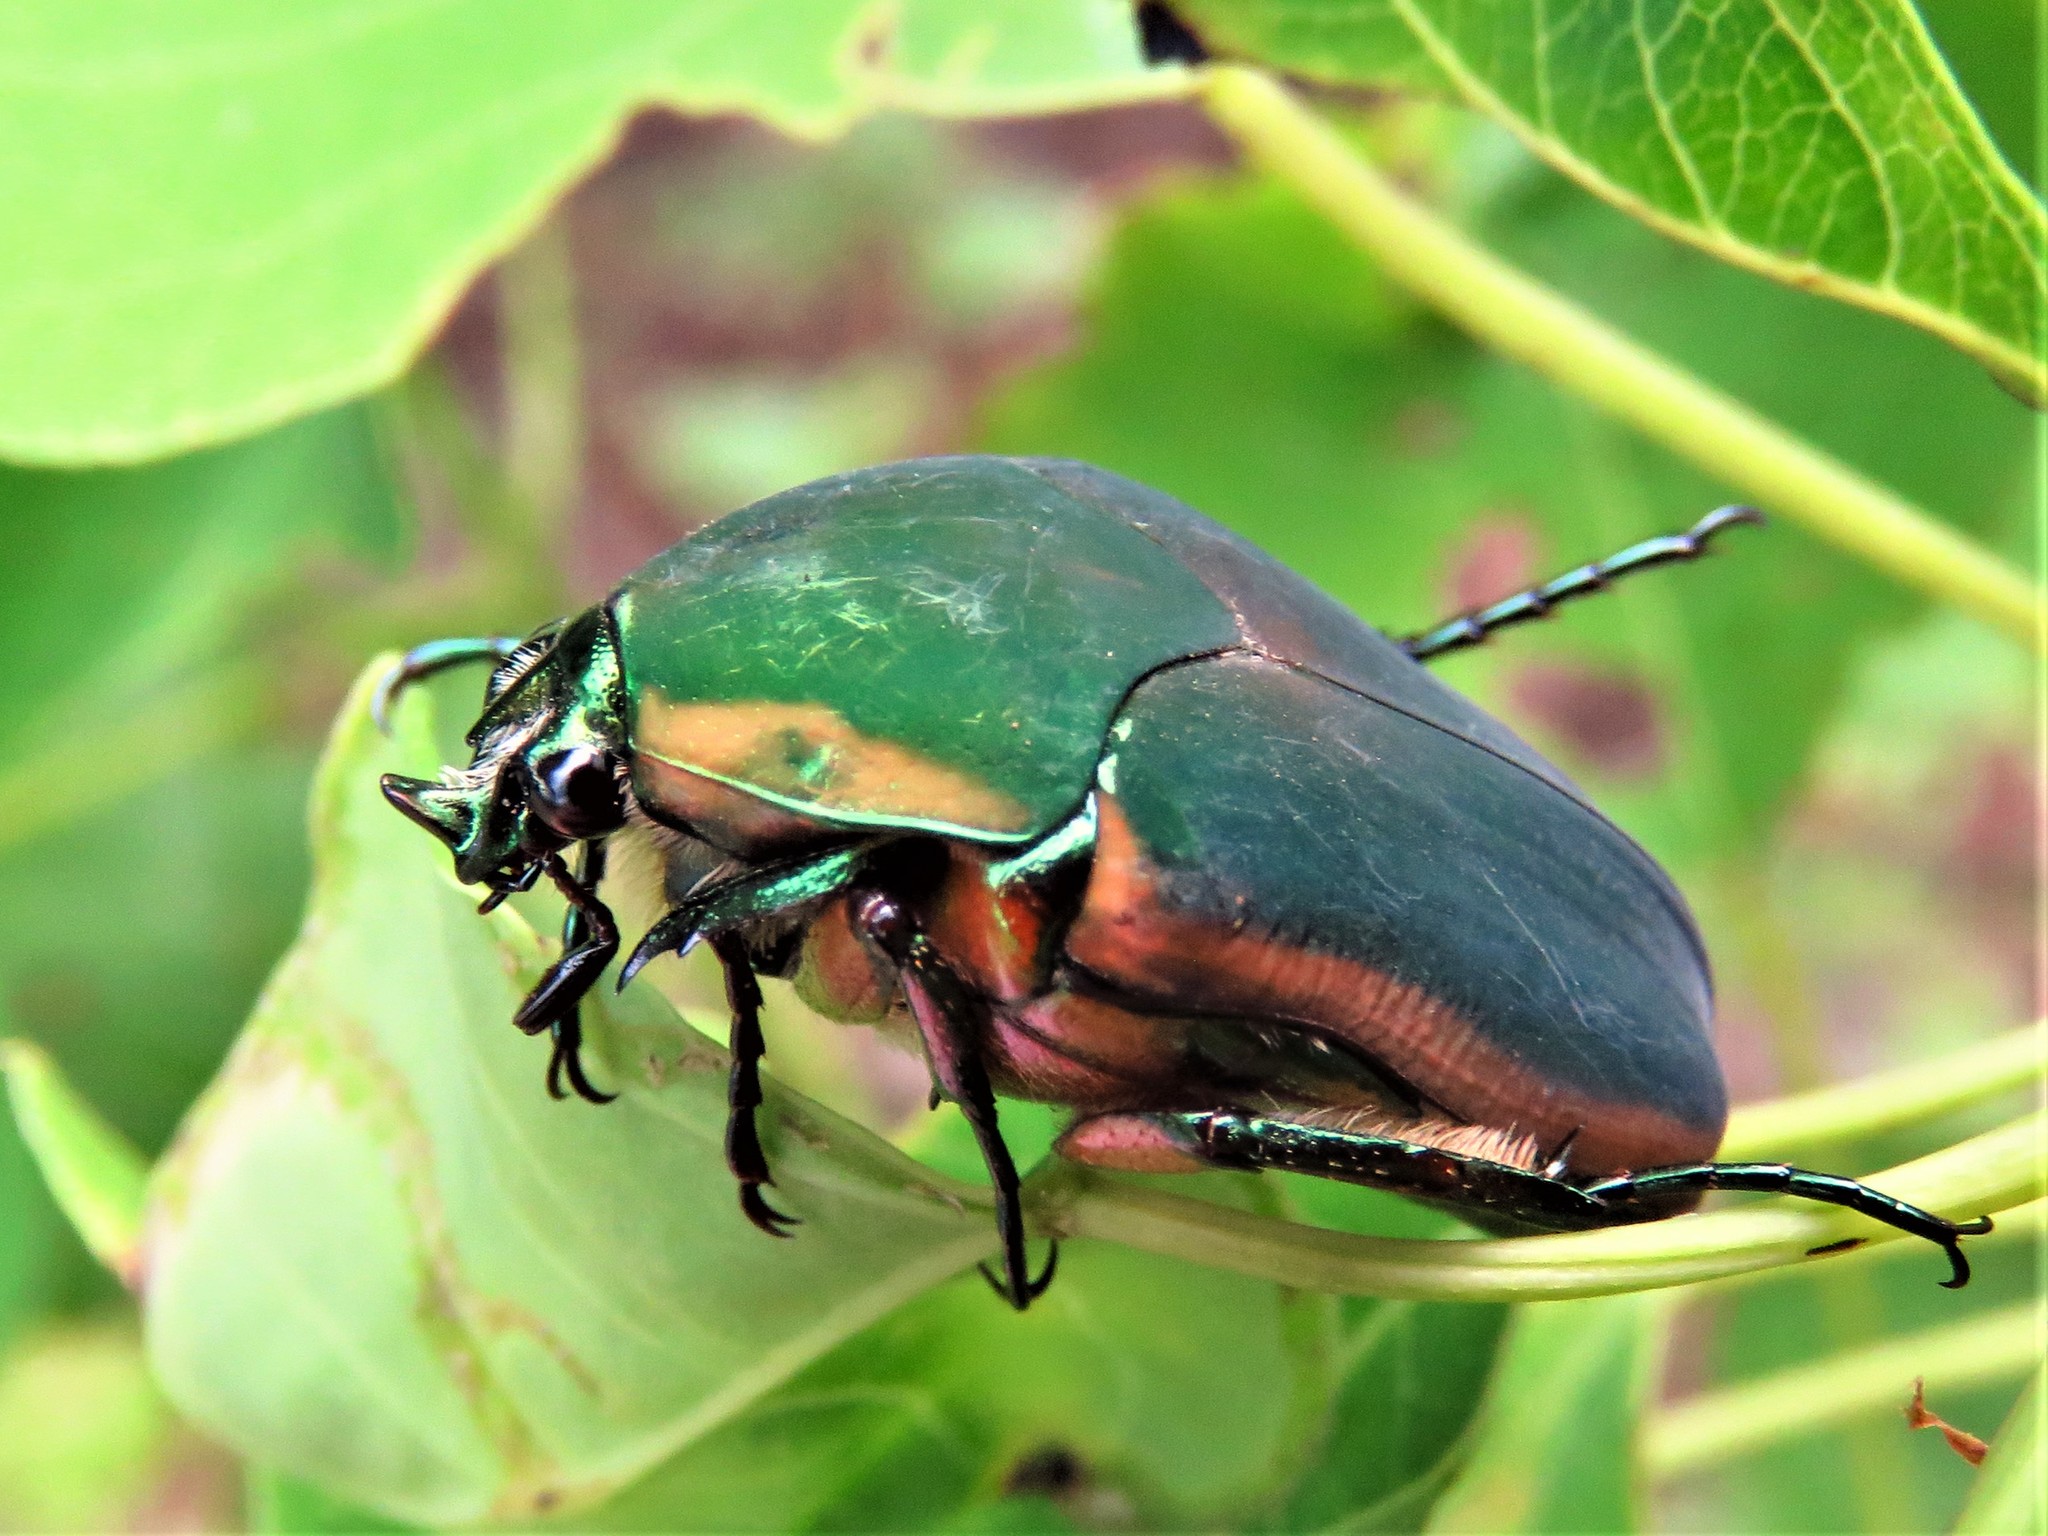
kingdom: Animalia
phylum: Arthropoda
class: Insecta
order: Coleoptera
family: Scarabaeidae
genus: Cotinis
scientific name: Cotinis nitida
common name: Common green june beetle
